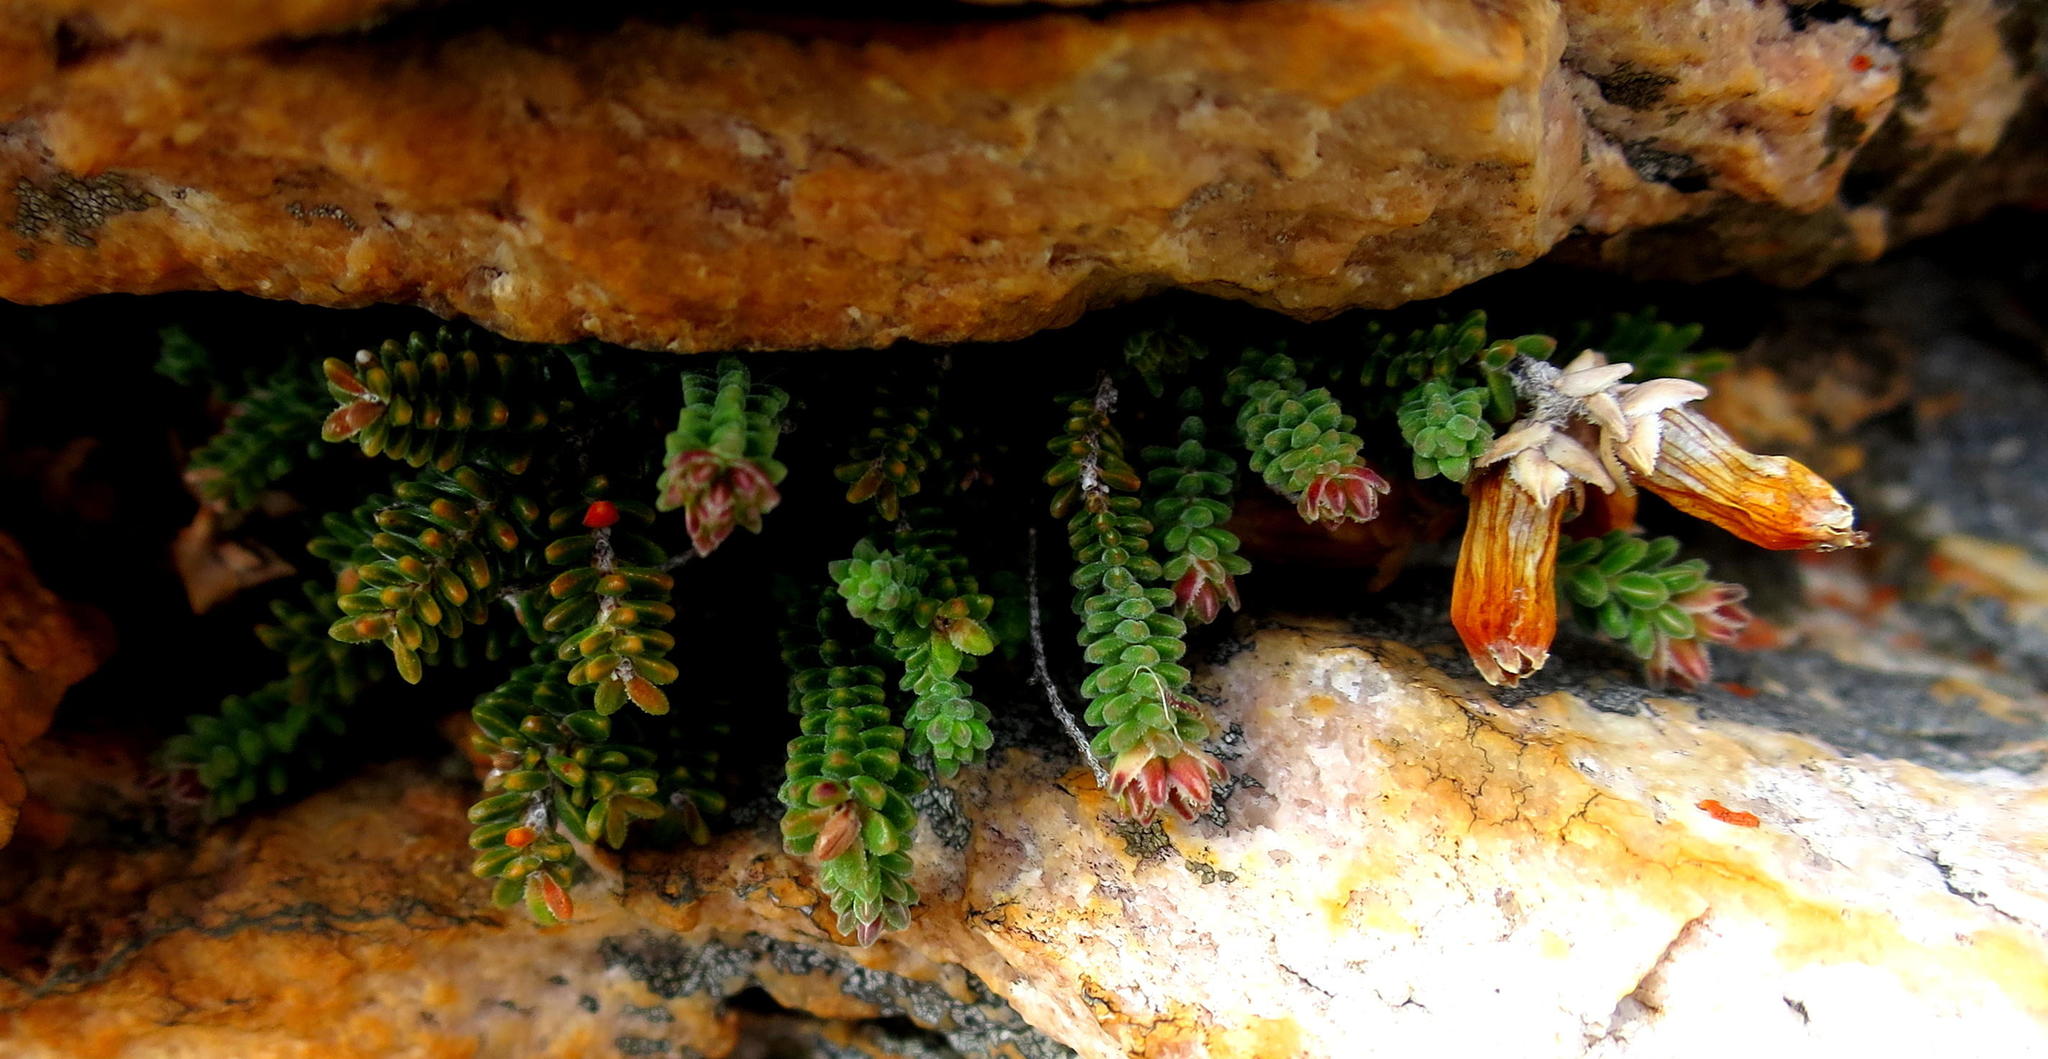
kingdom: Plantae
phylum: Tracheophyta
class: Magnoliopsida
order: Ericales
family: Ericaceae
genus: Erica
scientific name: Erica lithophila
